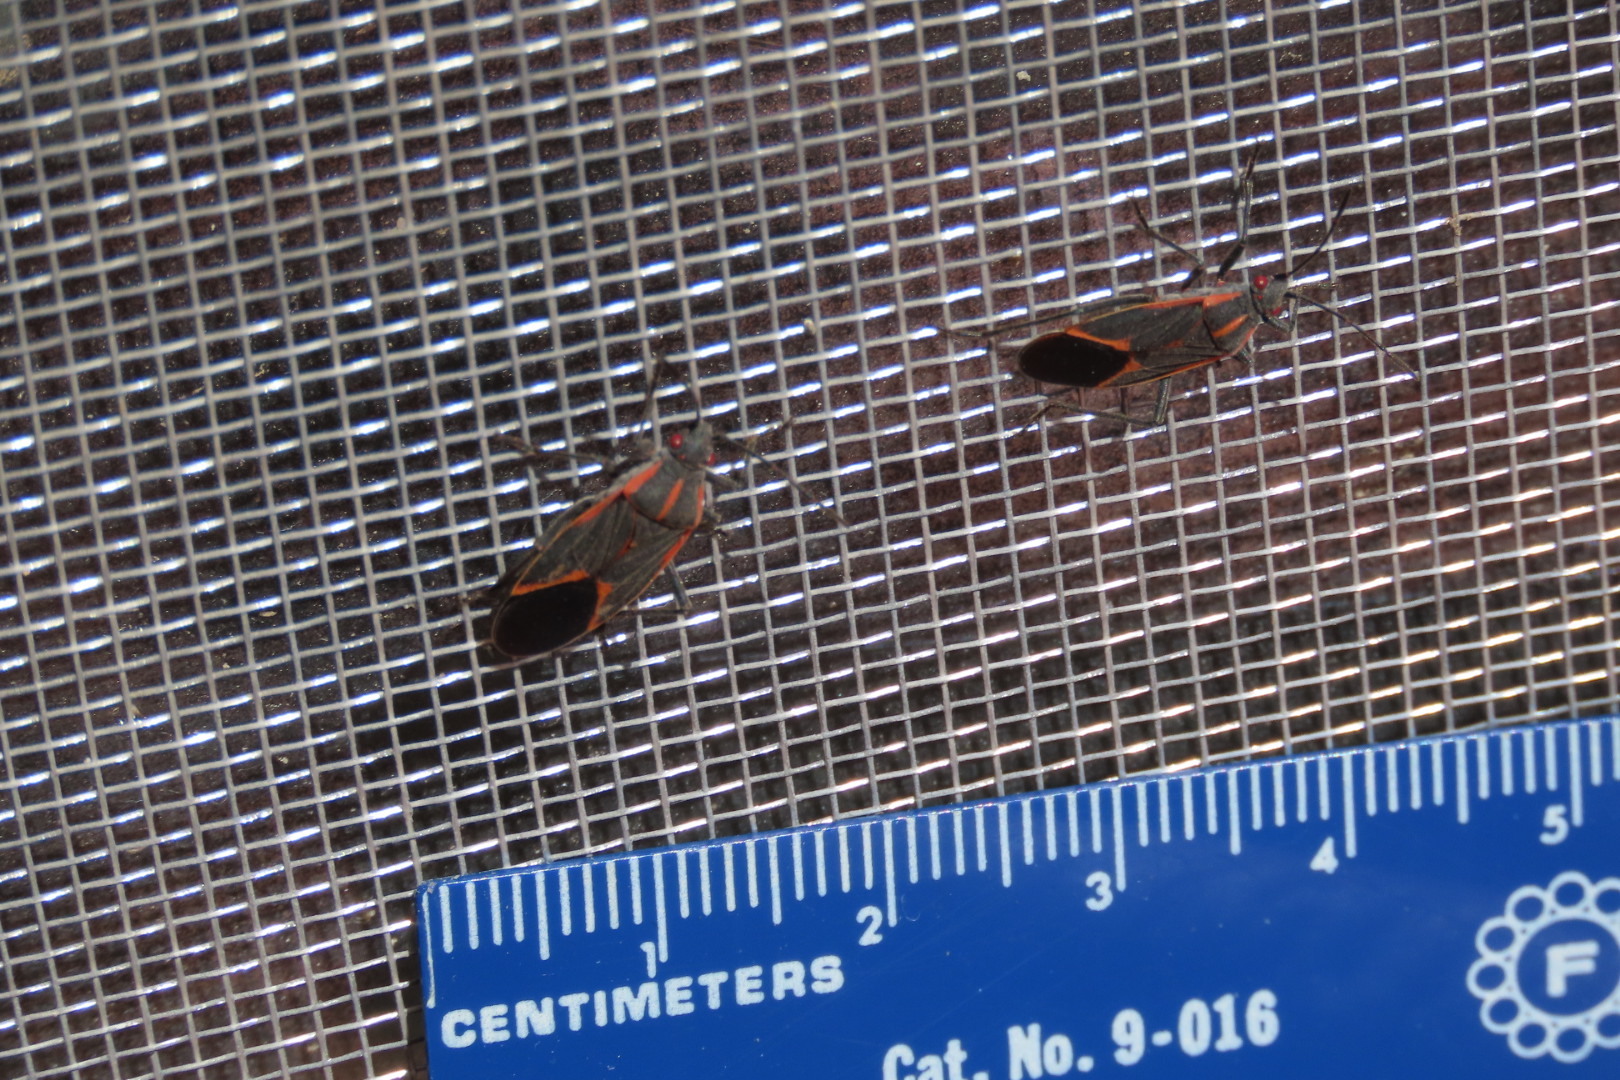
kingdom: Animalia
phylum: Arthropoda
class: Insecta
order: Hemiptera
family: Rhopalidae
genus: Boisea
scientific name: Boisea trivittata
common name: Boxelder bug
